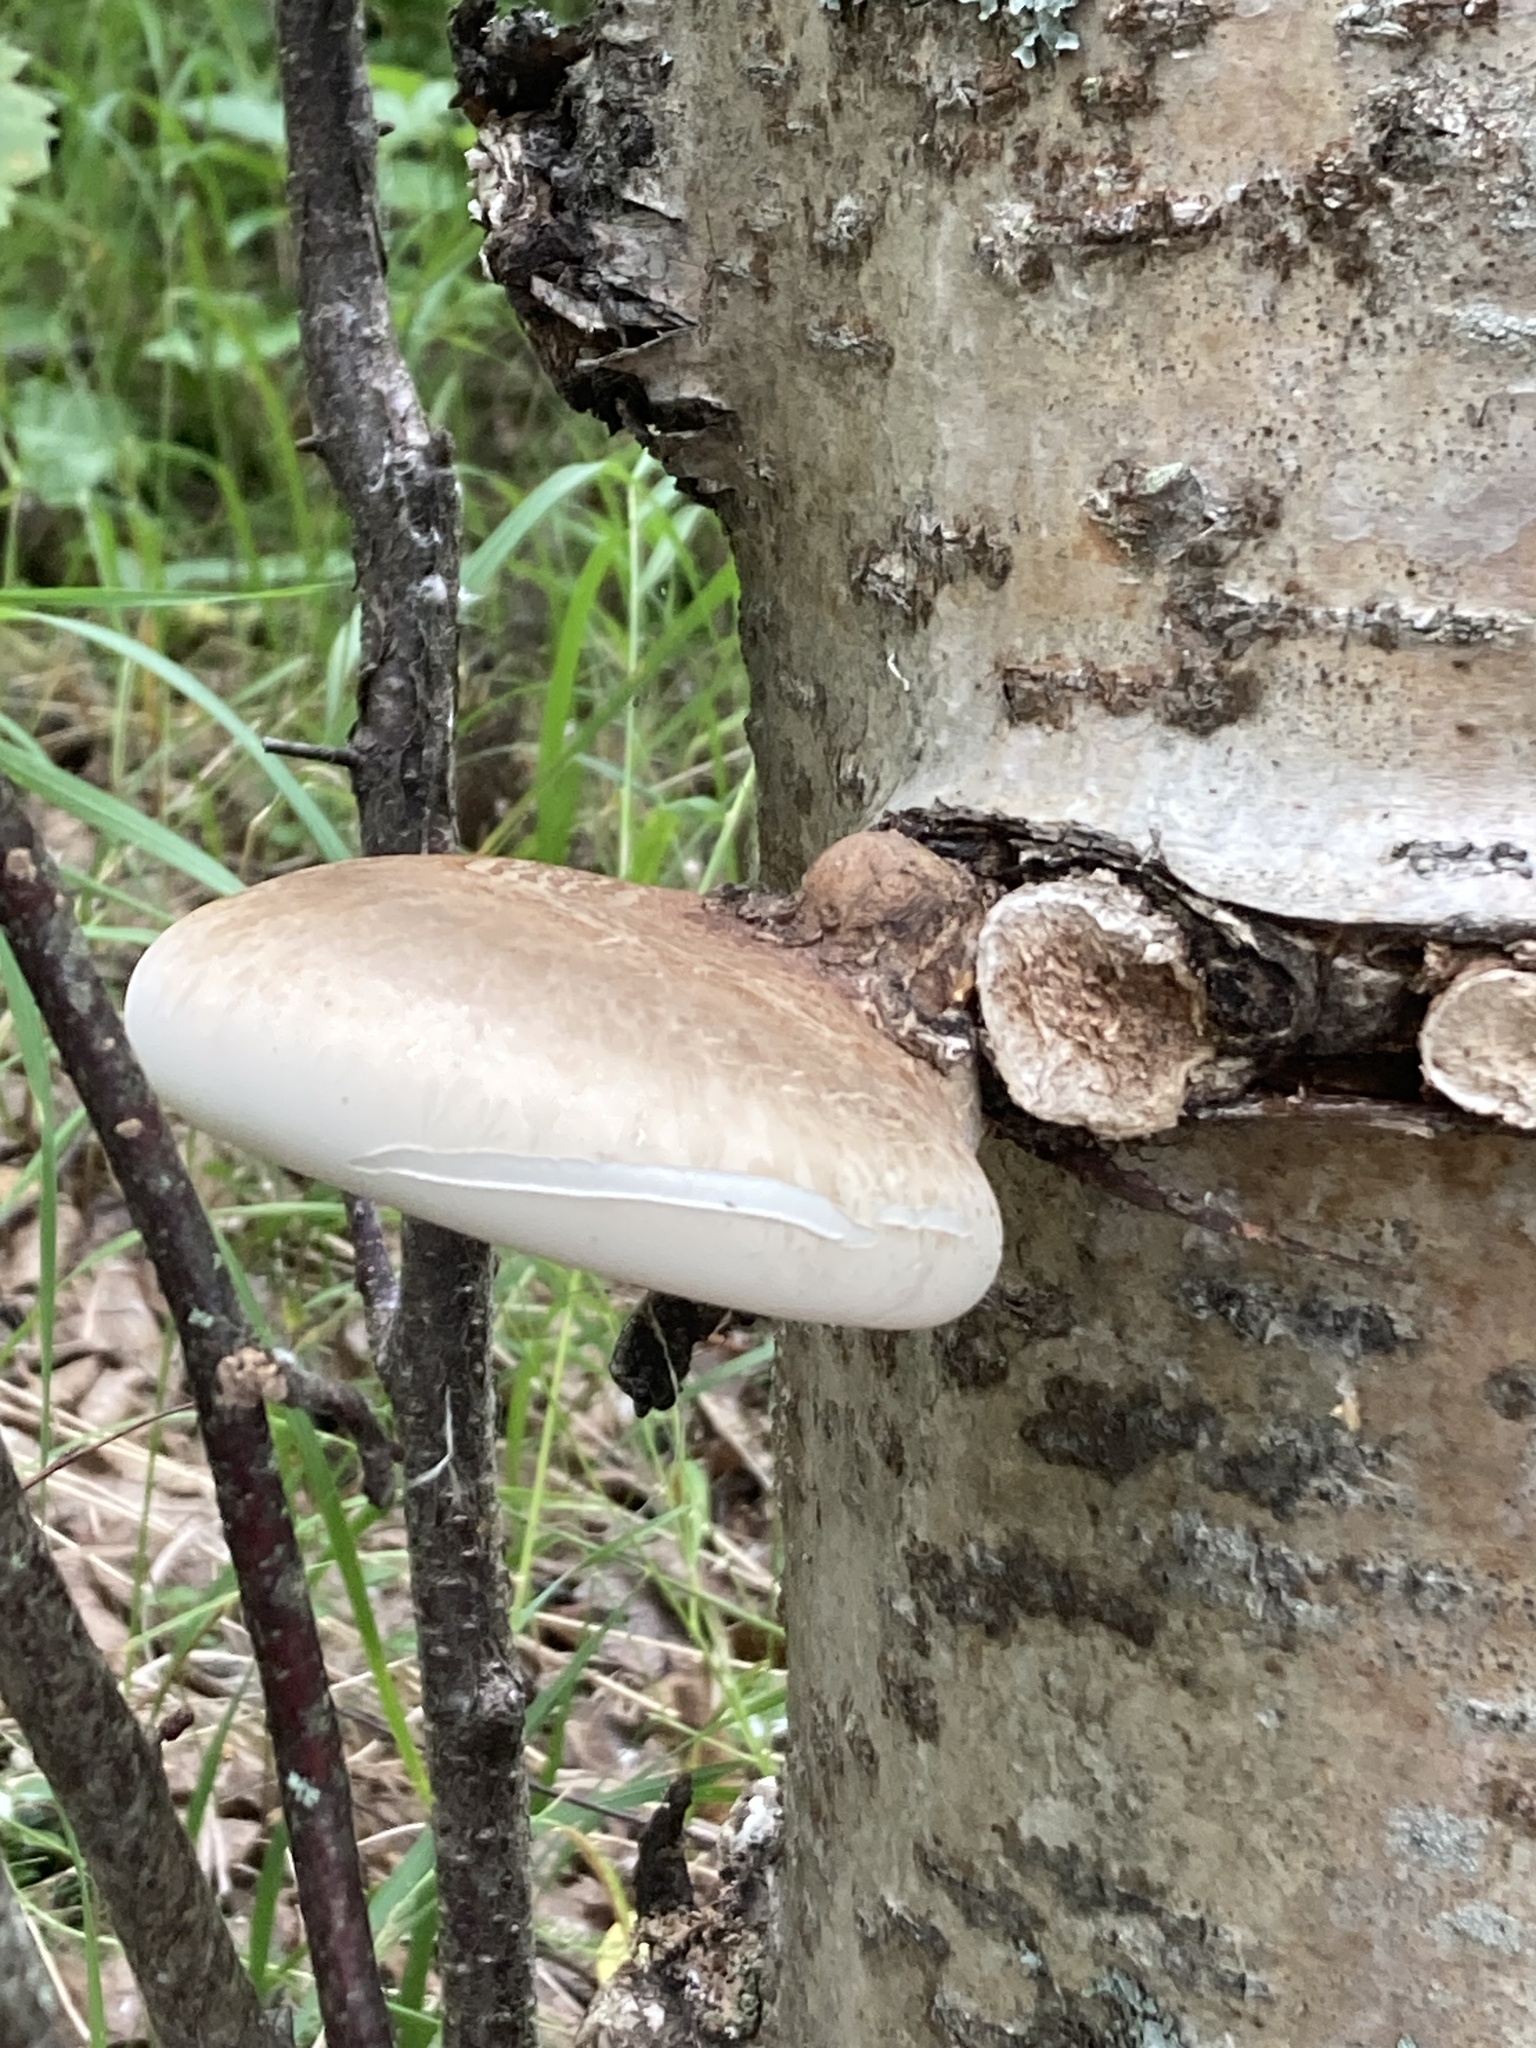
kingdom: Fungi
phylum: Basidiomycota
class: Agaricomycetes
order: Polyporales
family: Fomitopsidaceae
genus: Fomitopsis
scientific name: Fomitopsis betulina
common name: Birch polypore
